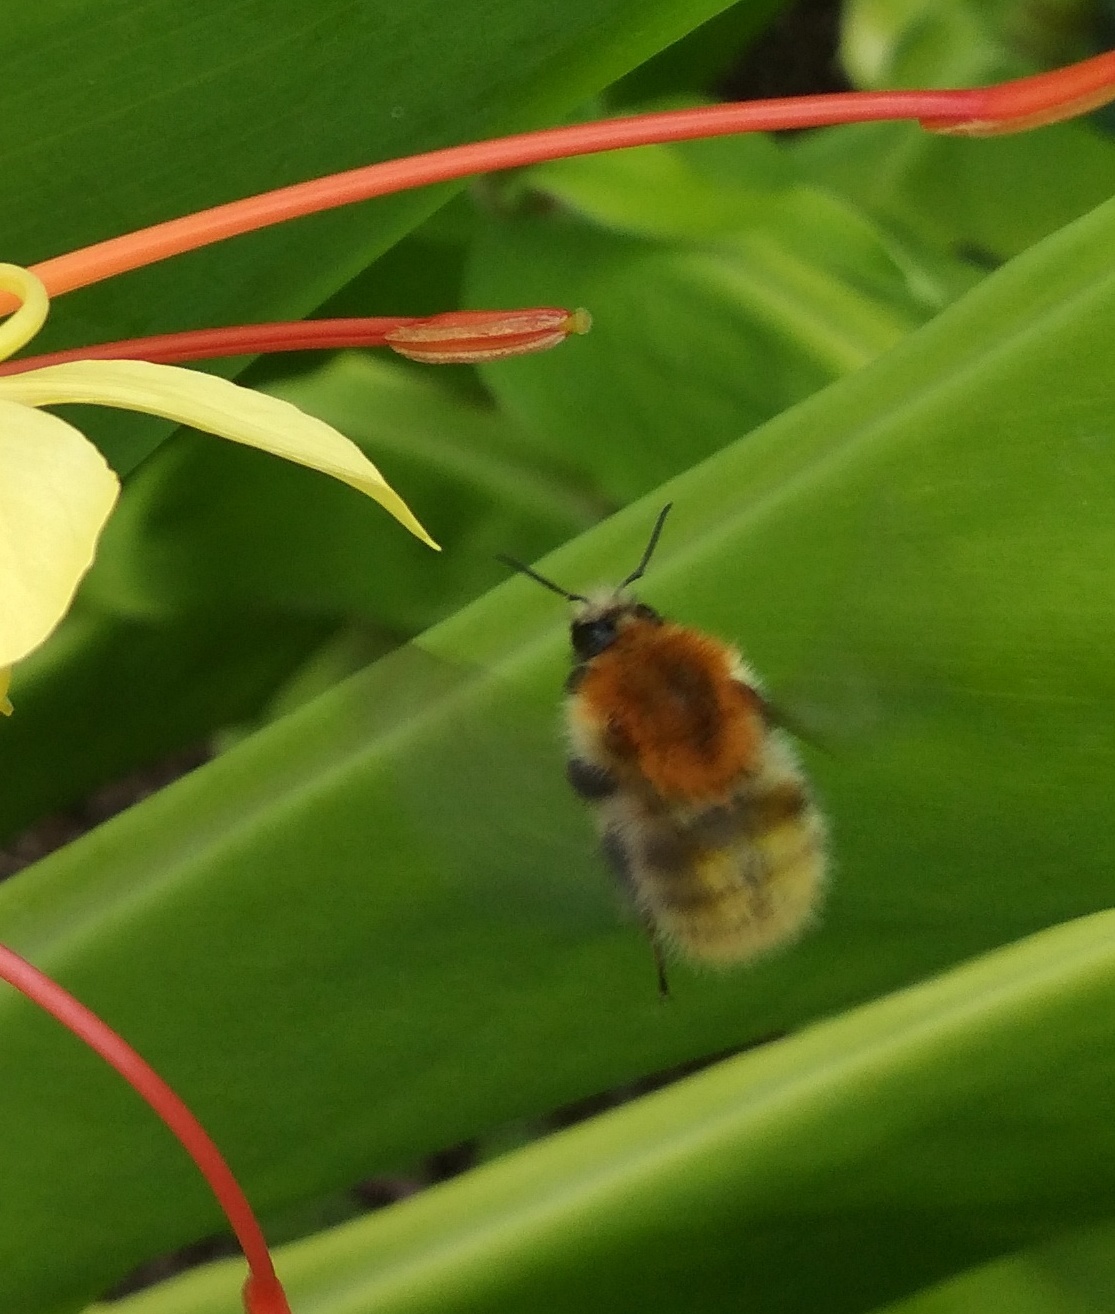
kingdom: Animalia
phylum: Arthropoda
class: Insecta
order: Hymenoptera
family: Apidae
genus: Bombus
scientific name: Bombus pascuorum
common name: Common carder bee
